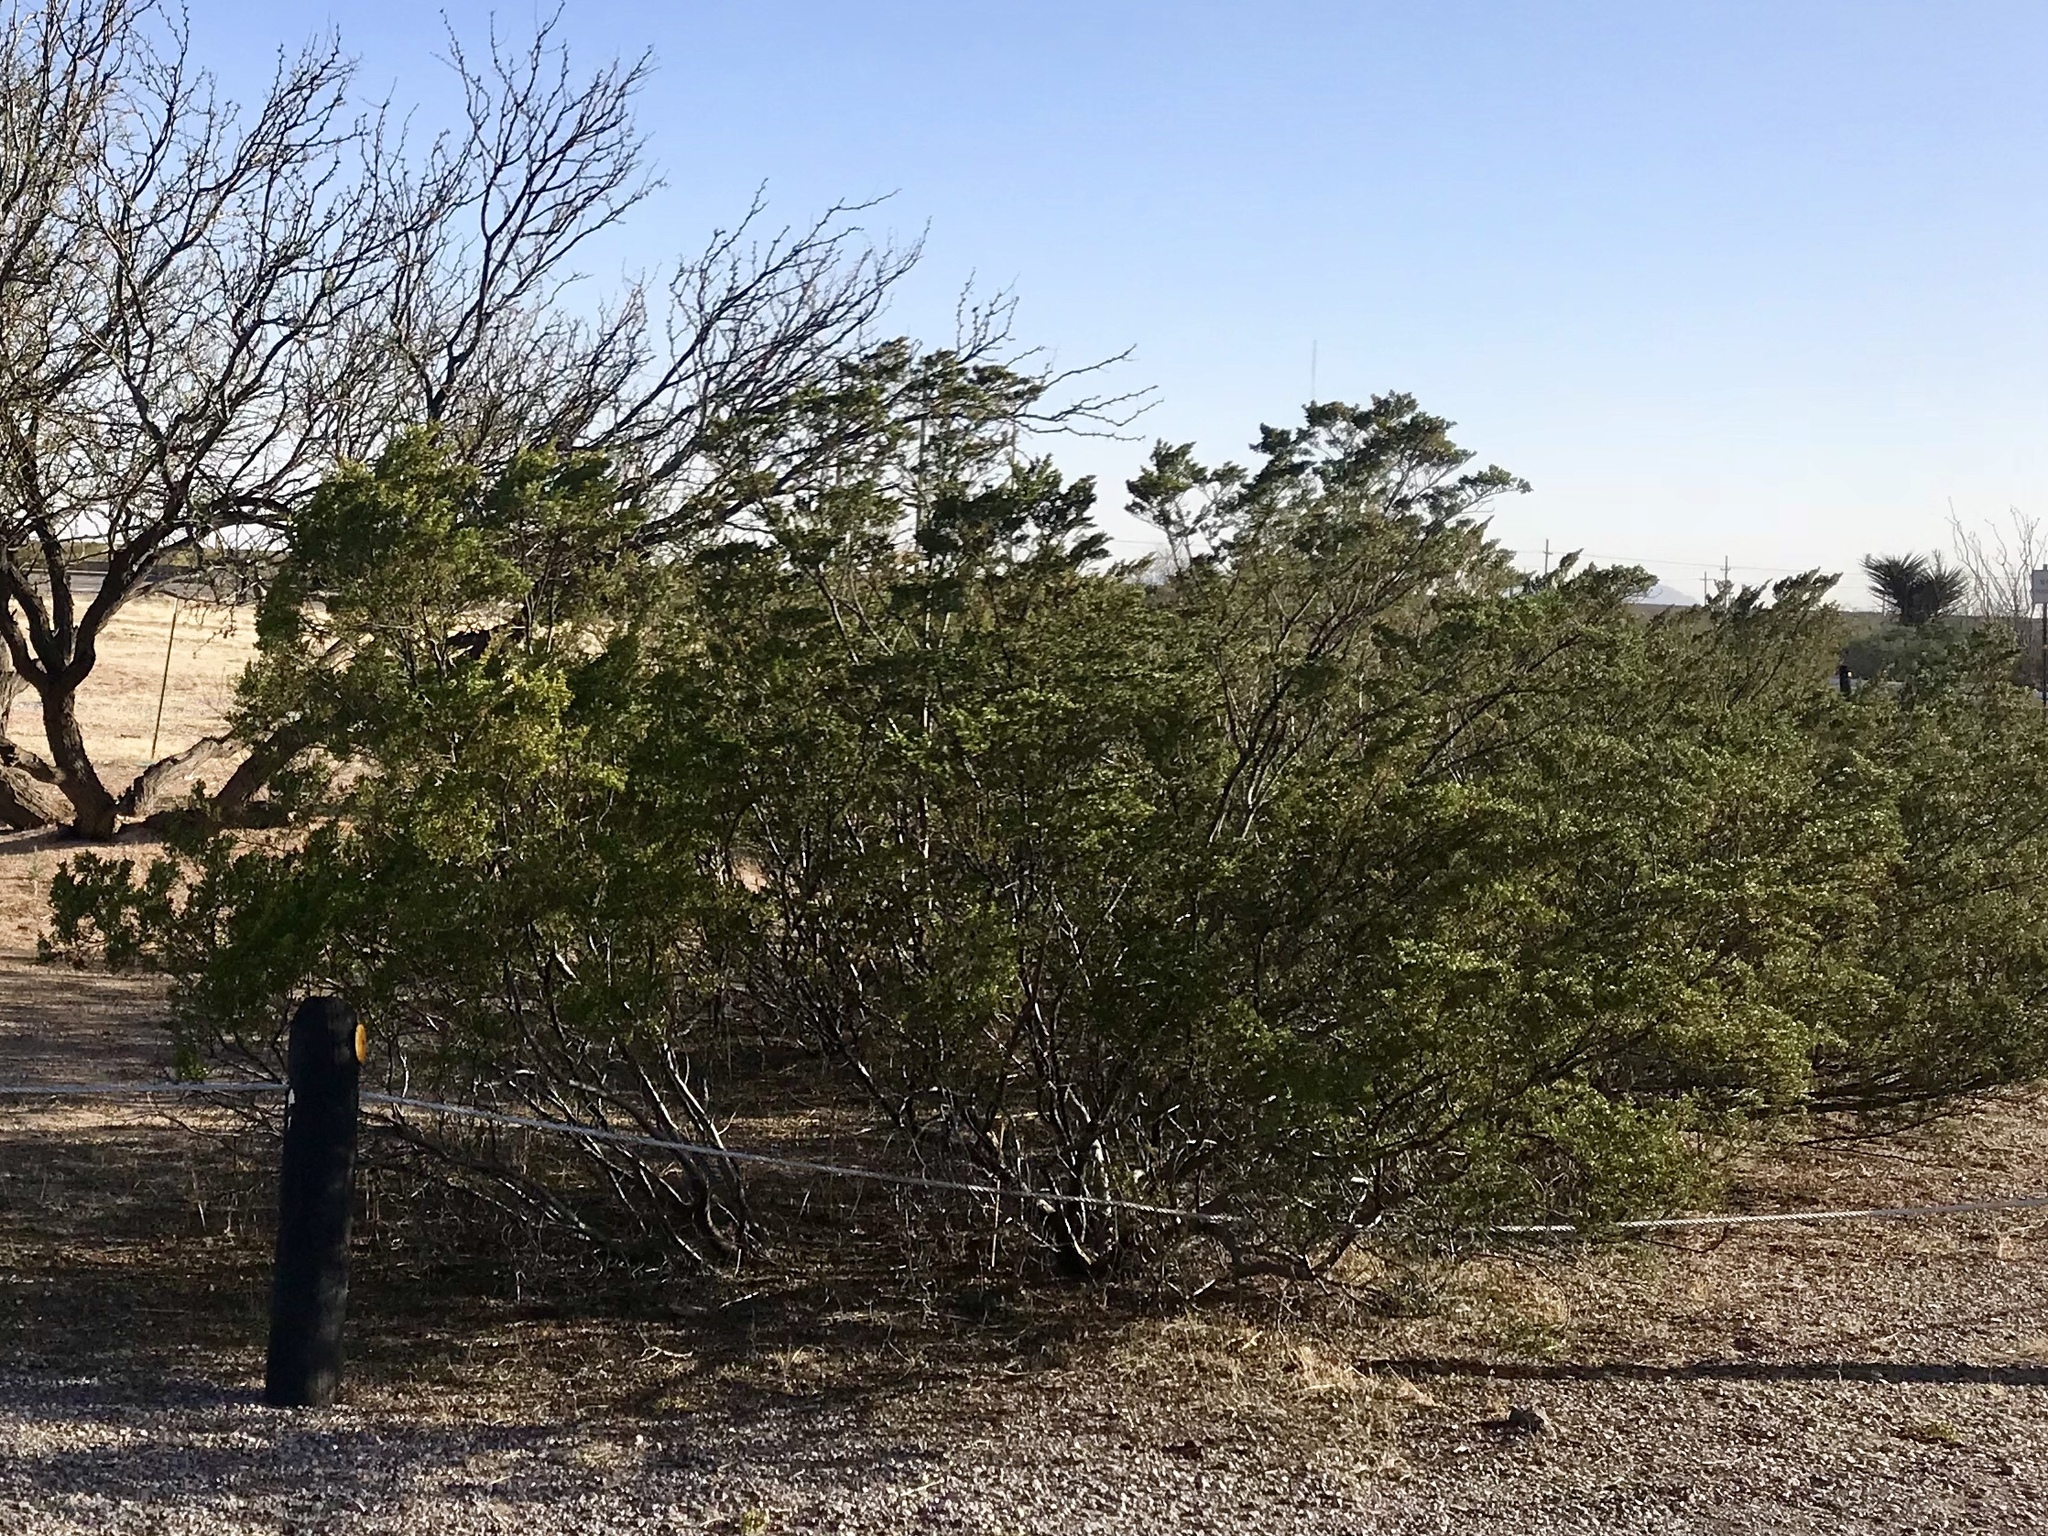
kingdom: Plantae
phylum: Tracheophyta
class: Magnoliopsida
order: Zygophyllales
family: Zygophyllaceae
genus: Larrea
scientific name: Larrea tridentata
